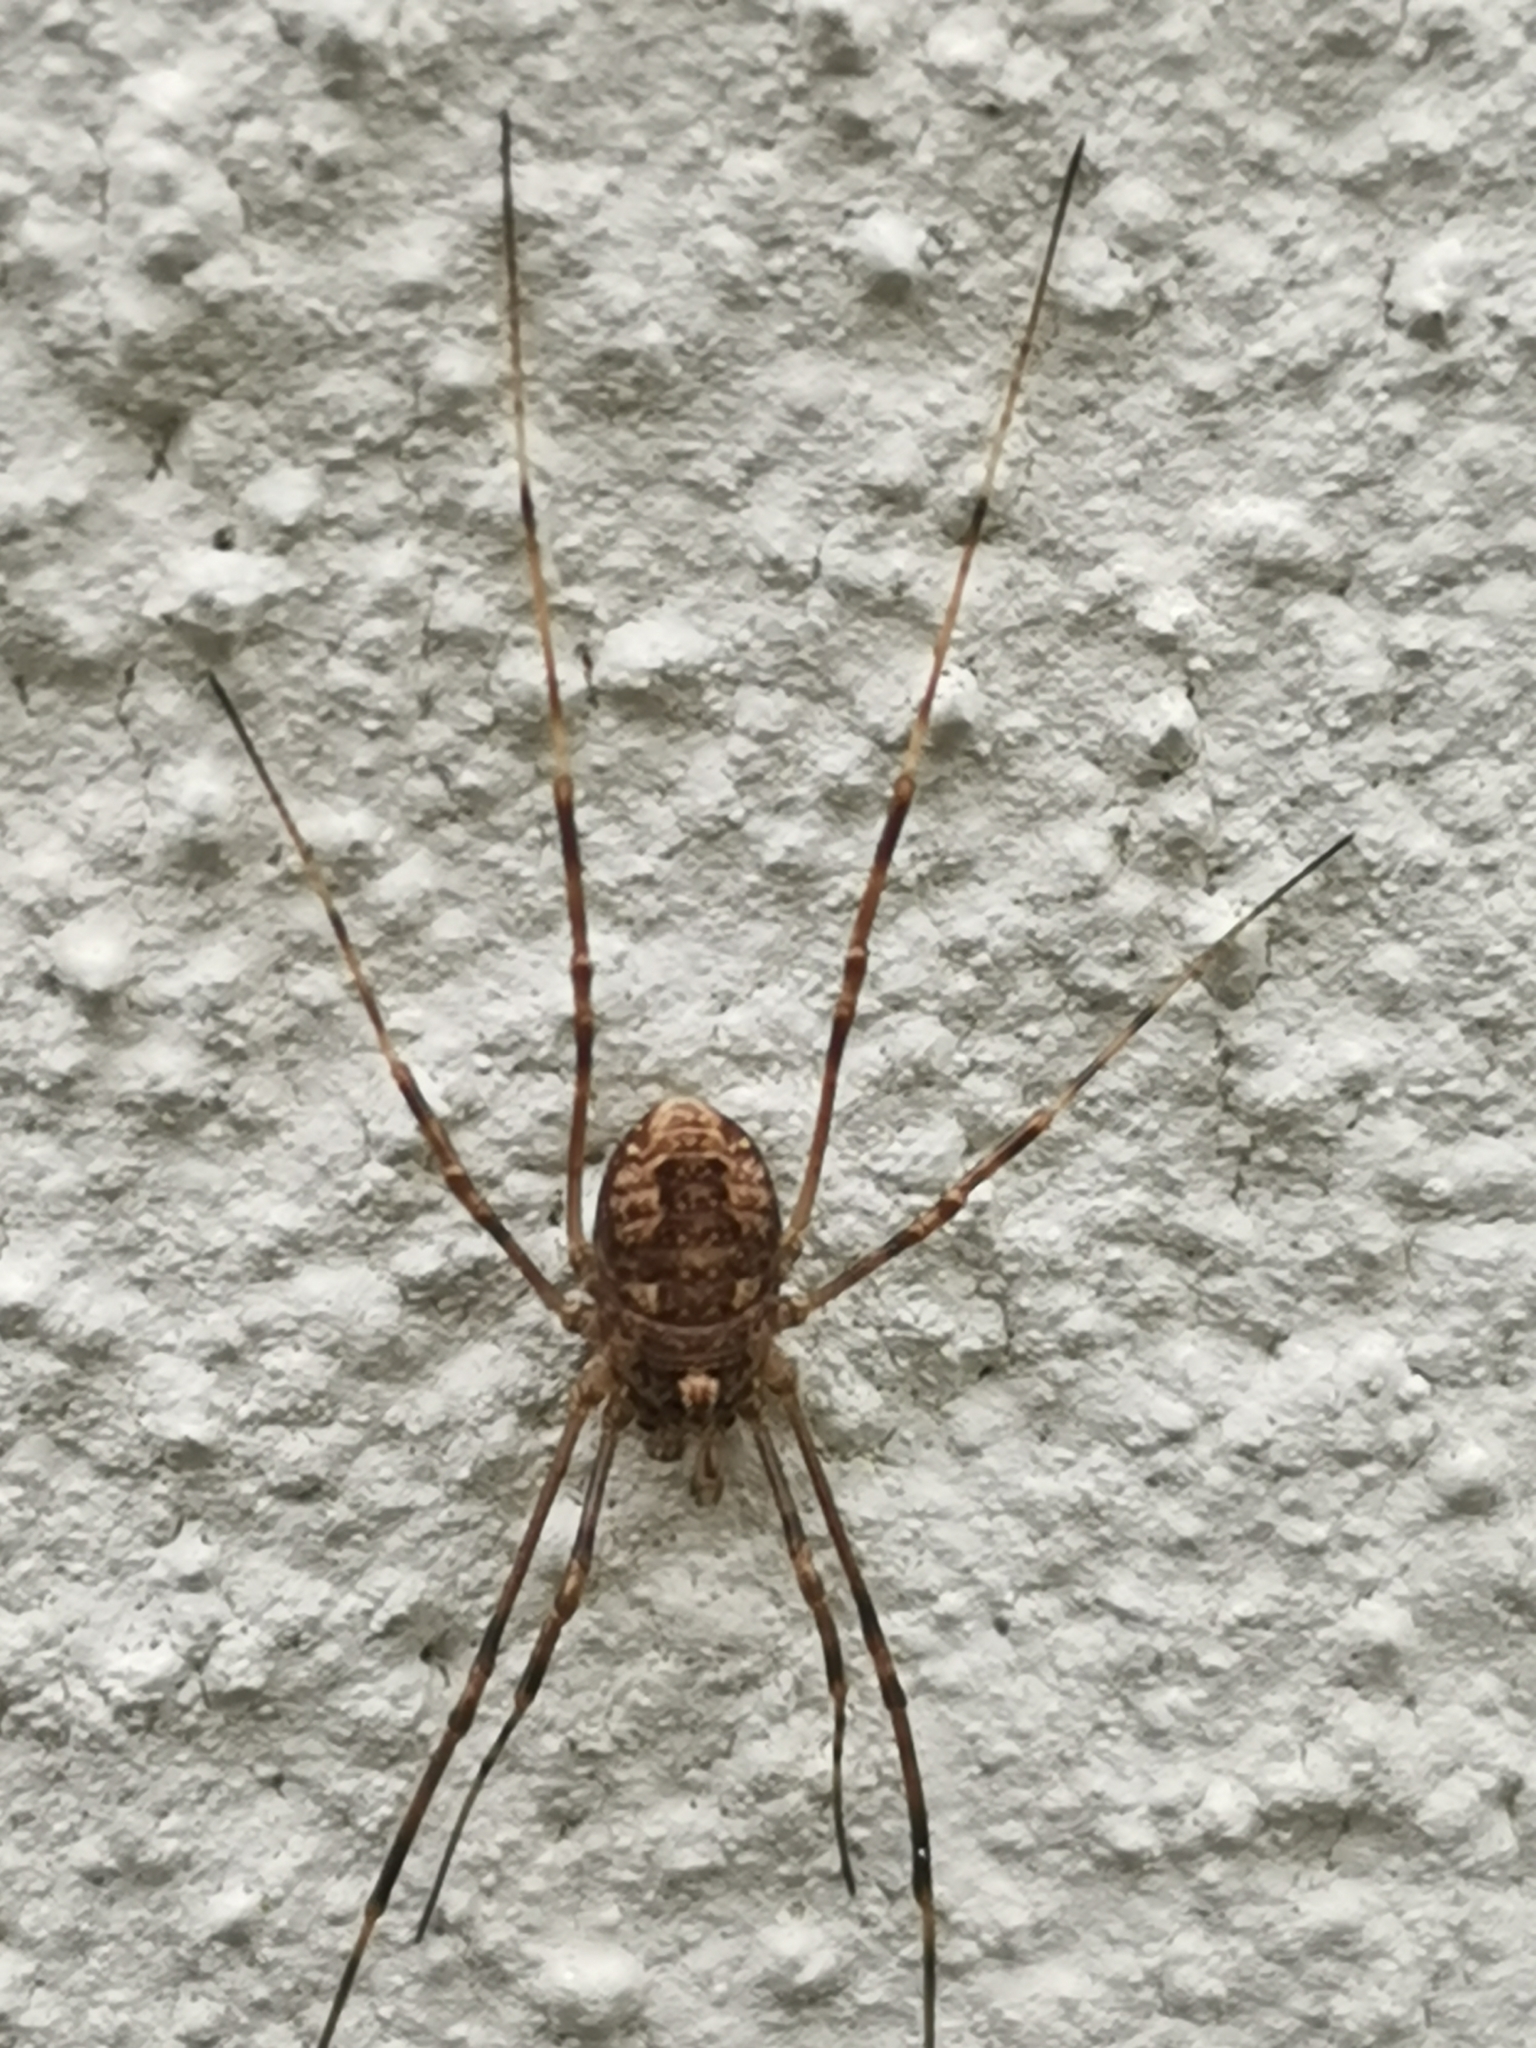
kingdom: Animalia
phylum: Arthropoda
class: Arachnida
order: Opiliones
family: Phalangiidae
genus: Rilaena
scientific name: Rilaena triangularis
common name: Spring harvestman
